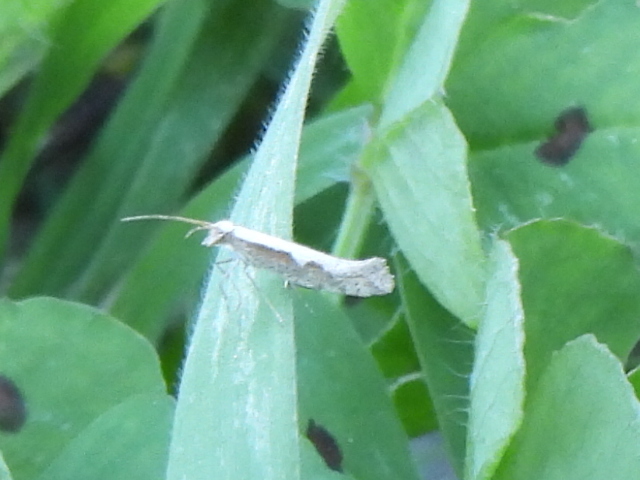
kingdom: Animalia
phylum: Arthropoda
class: Insecta
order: Lepidoptera
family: Plutellidae
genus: Plutella
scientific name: Plutella xylostella
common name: Diamond-back moth
